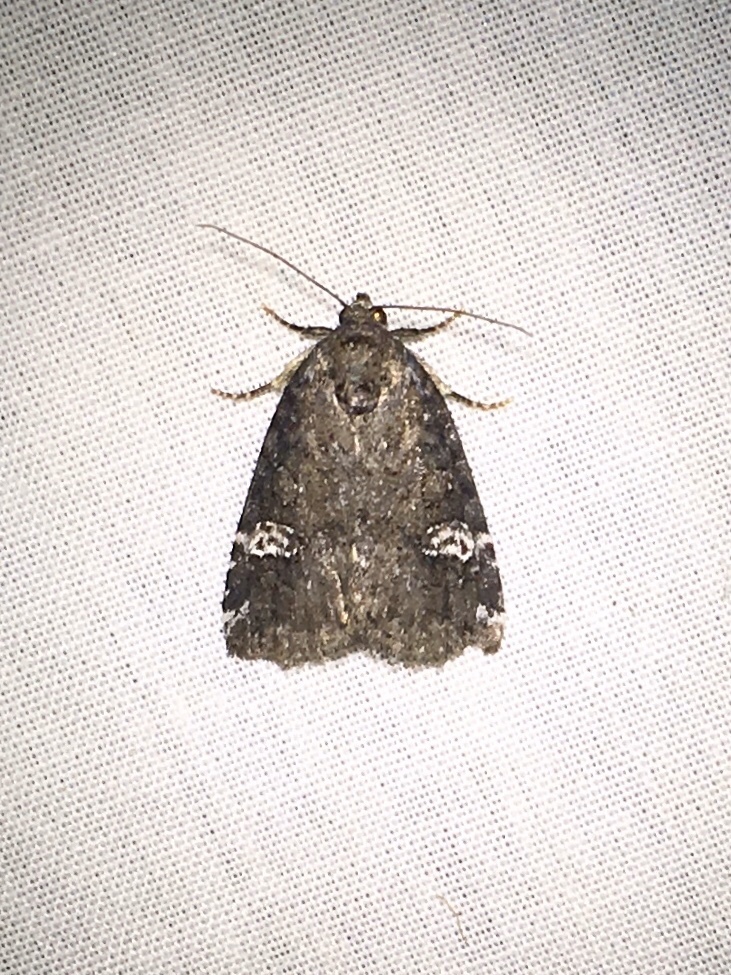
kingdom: Animalia
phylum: Arthropoda
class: Insecta
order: Lepidoptera
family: Noctuidae
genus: Anterastria
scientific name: Anterastria teratophora
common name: Gray marvel moth
